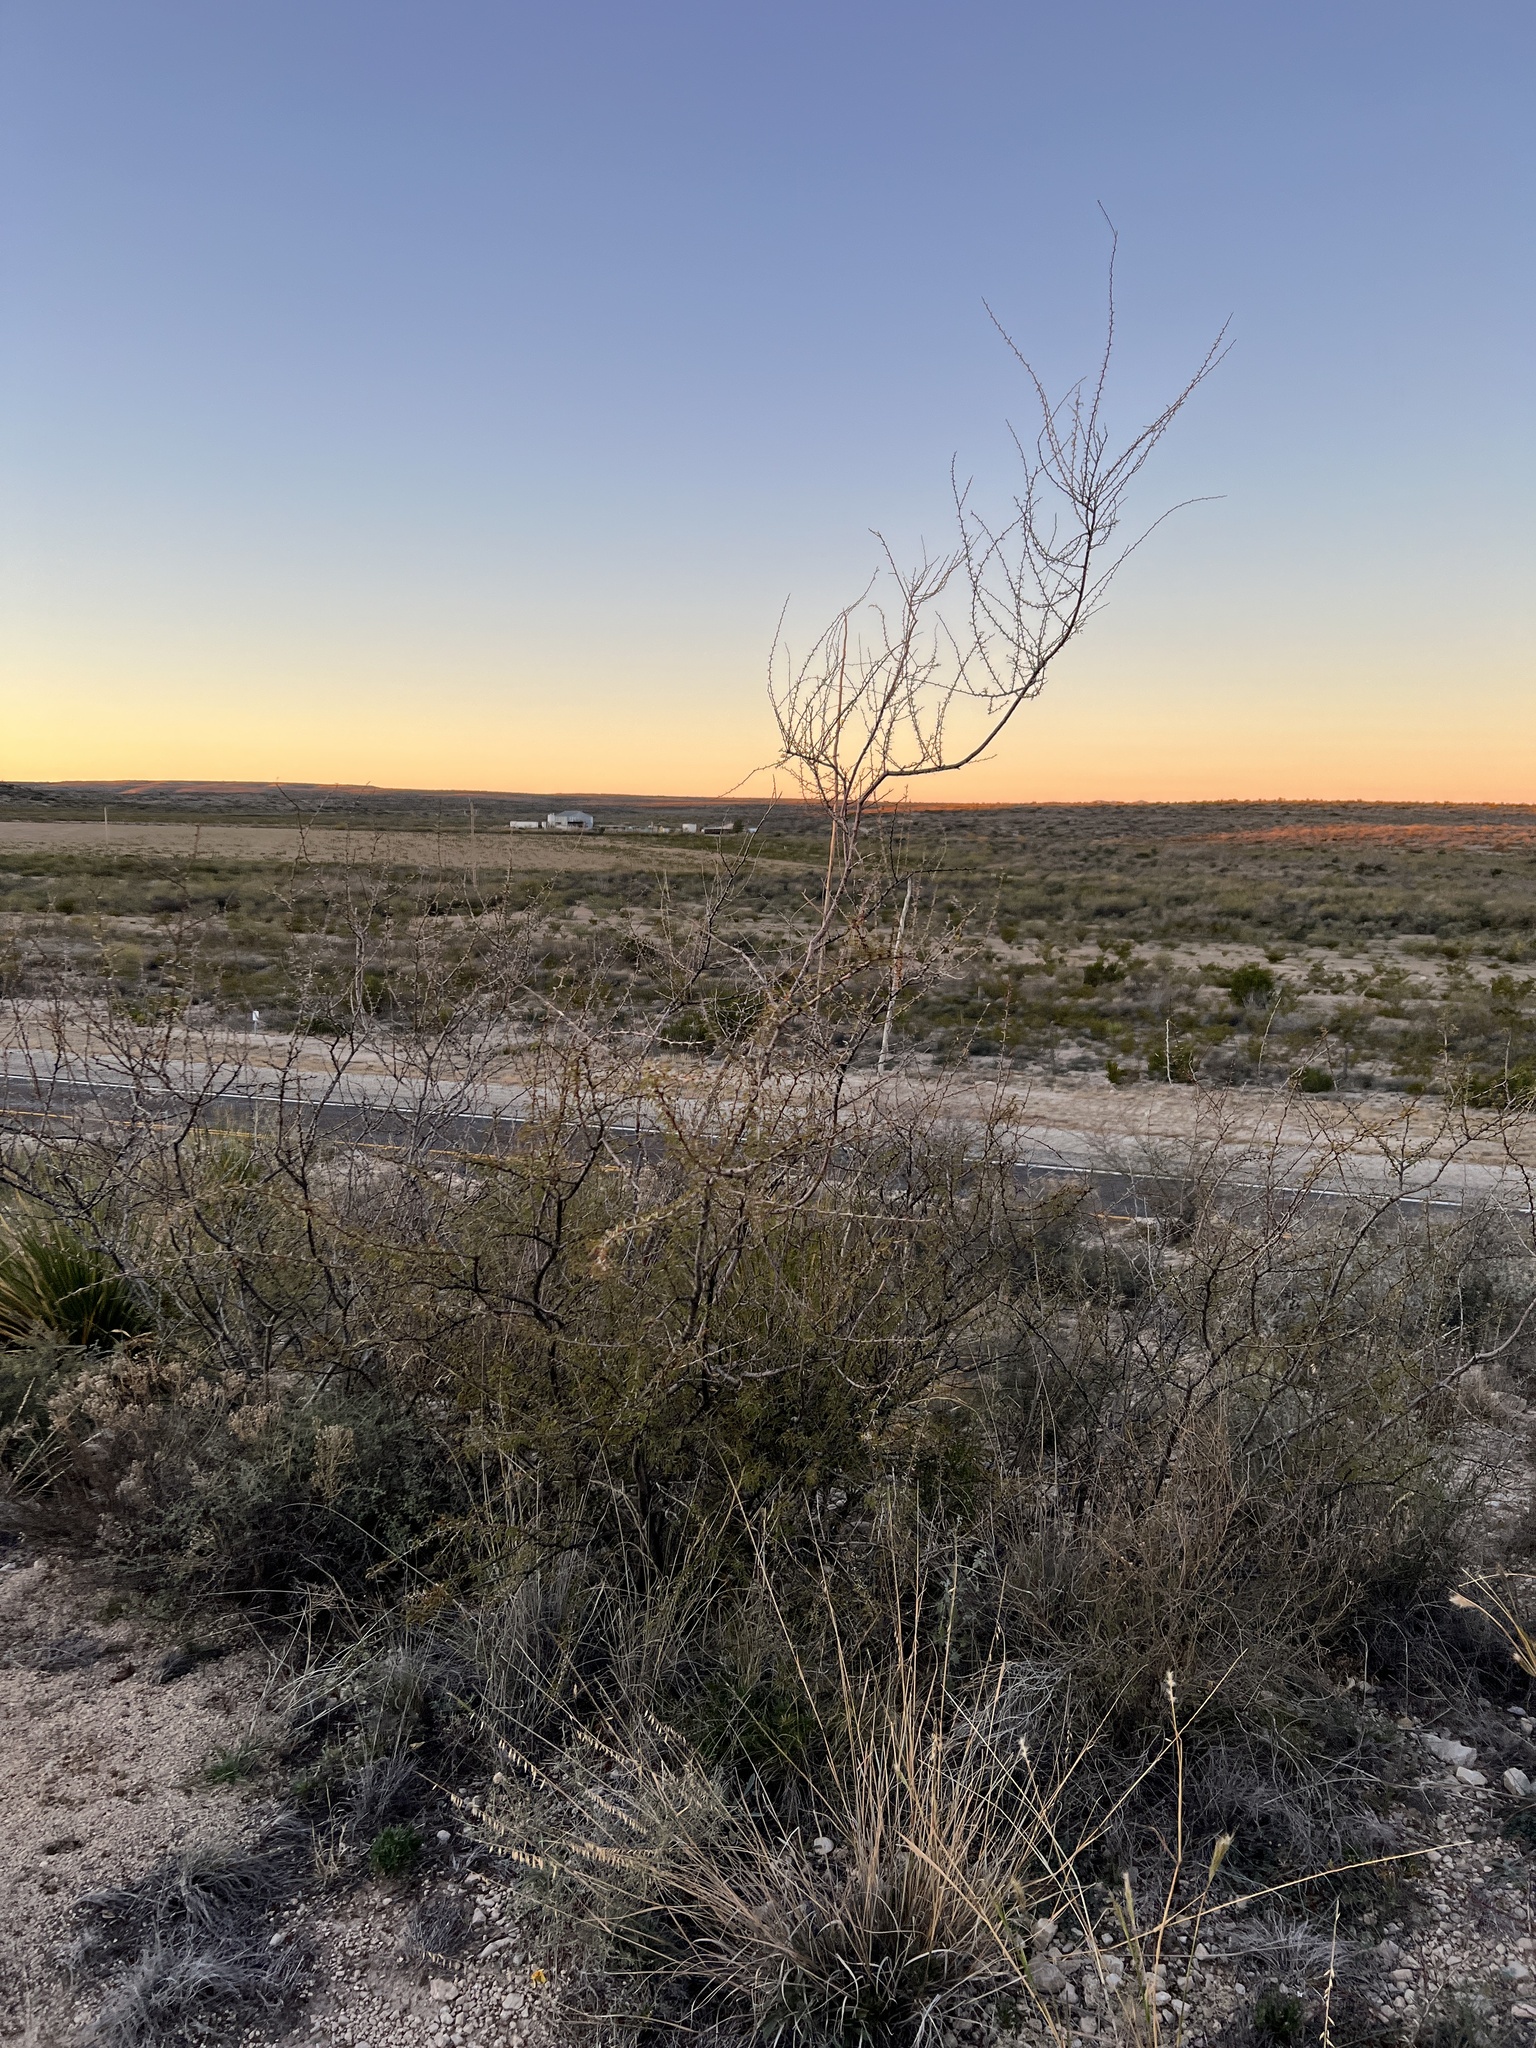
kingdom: Plantae
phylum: Tracheophyta
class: Magnoliopsida
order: Fabales
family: Fabaceae
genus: Vachellia
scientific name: Vachellia vernicosa
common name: Viscid acacia
